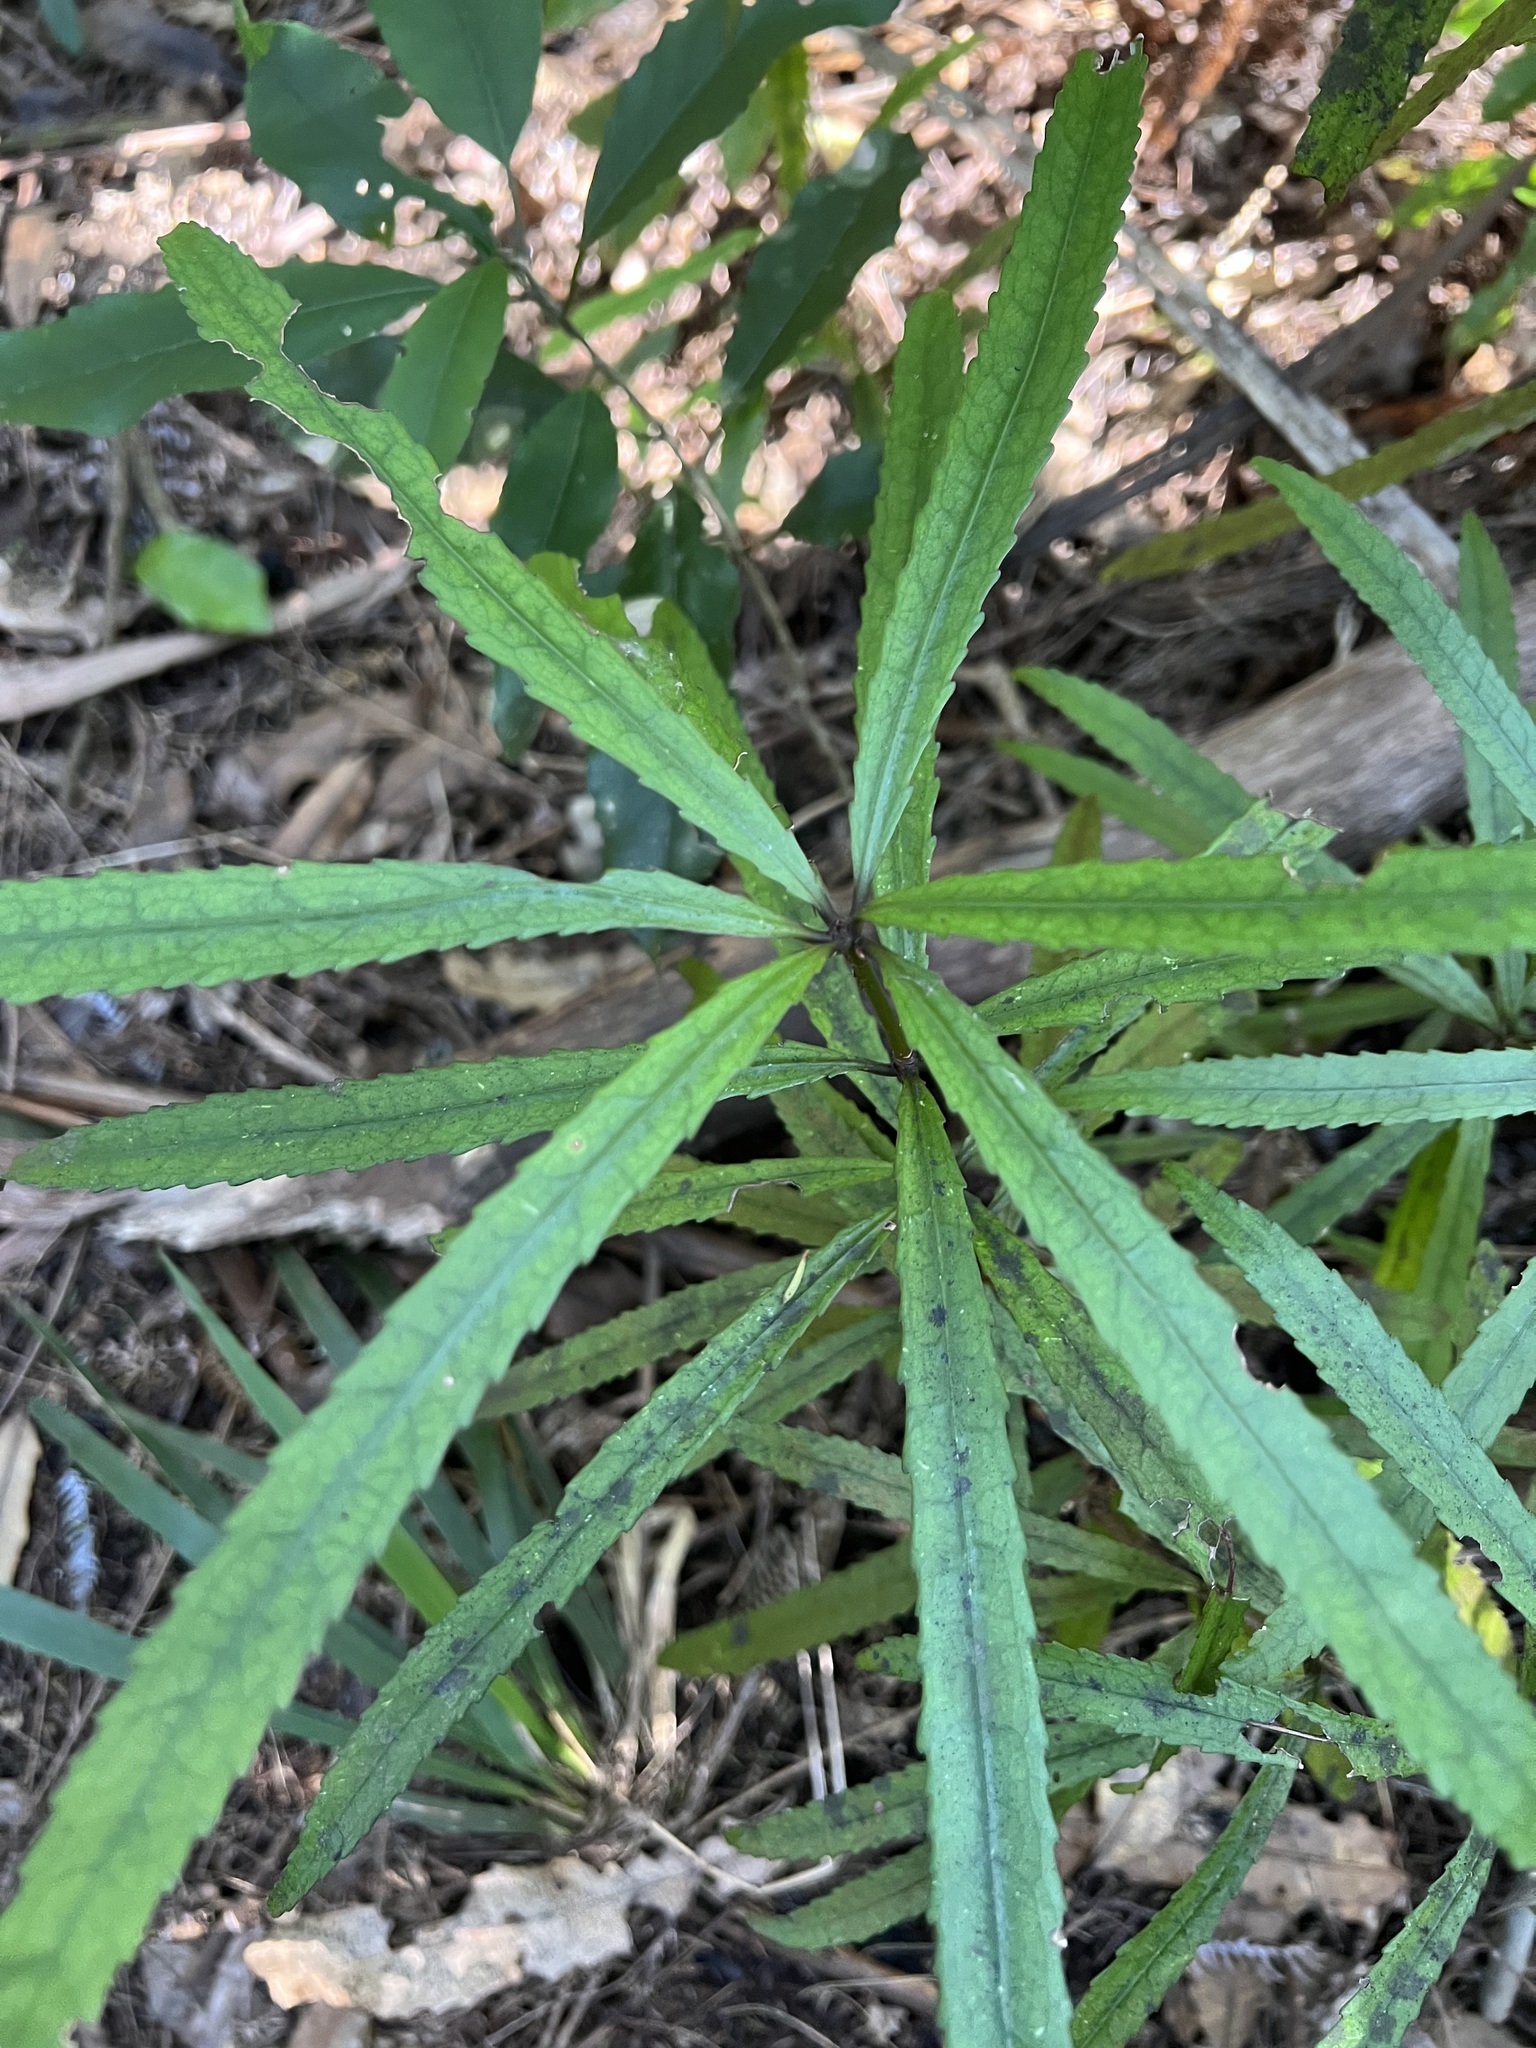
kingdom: Plantae
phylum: Tracheophyta
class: Magnoliopsida
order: Crossosomatales
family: Ixerbaceae
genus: Ixerba
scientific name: Ixerba brexioides
